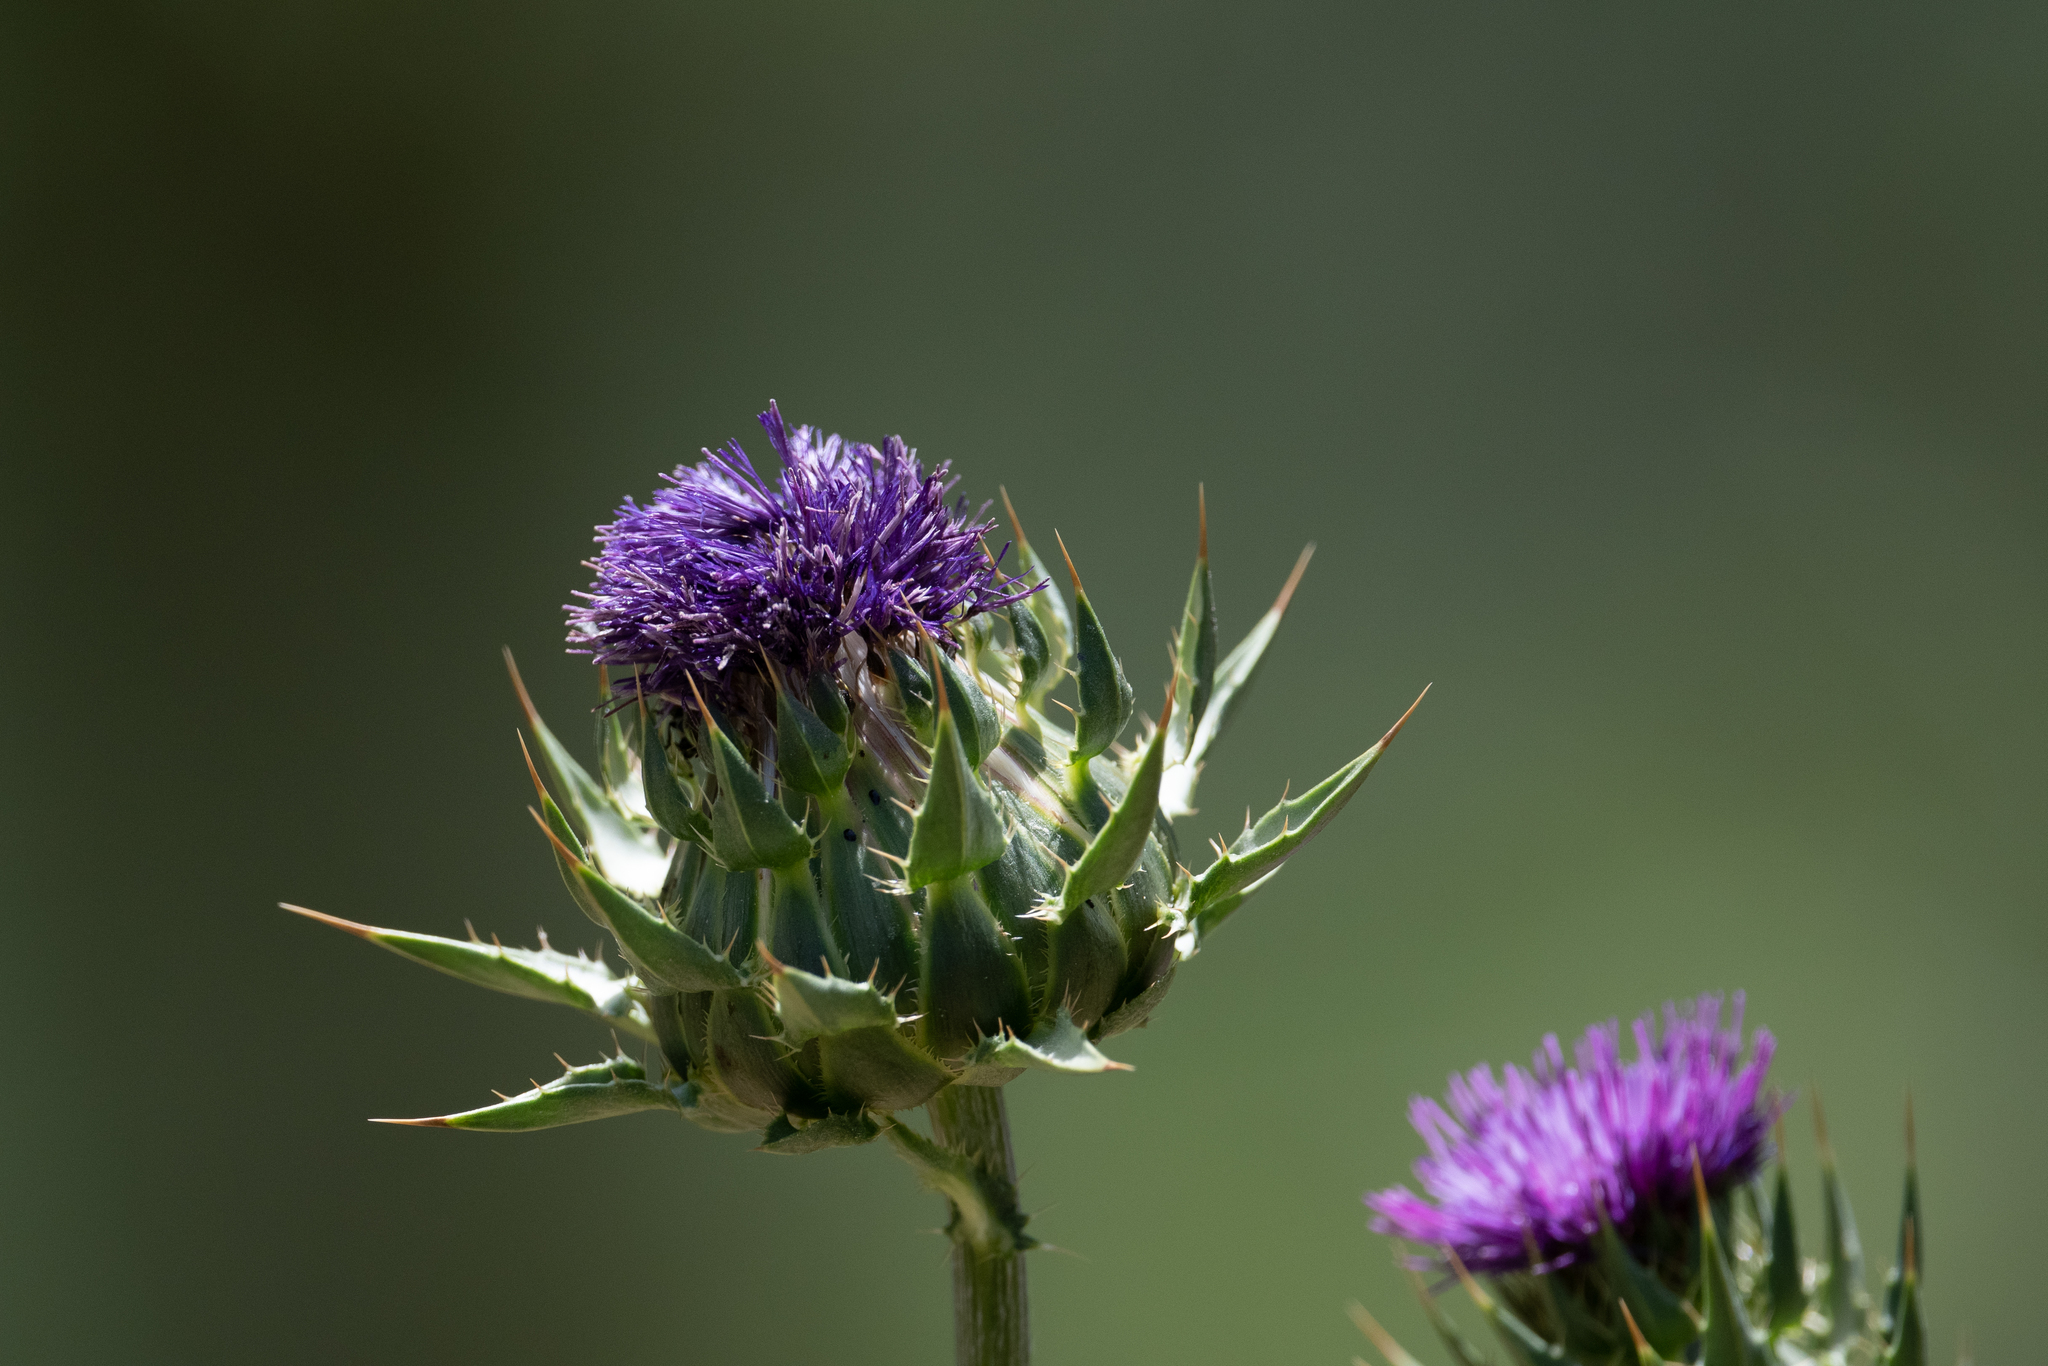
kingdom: Plantae
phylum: Tracheophyta
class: Magnoliopsida
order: Asterales
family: Asteraceae
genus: Silybum
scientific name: Silybum marianum
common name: Milk thistle
